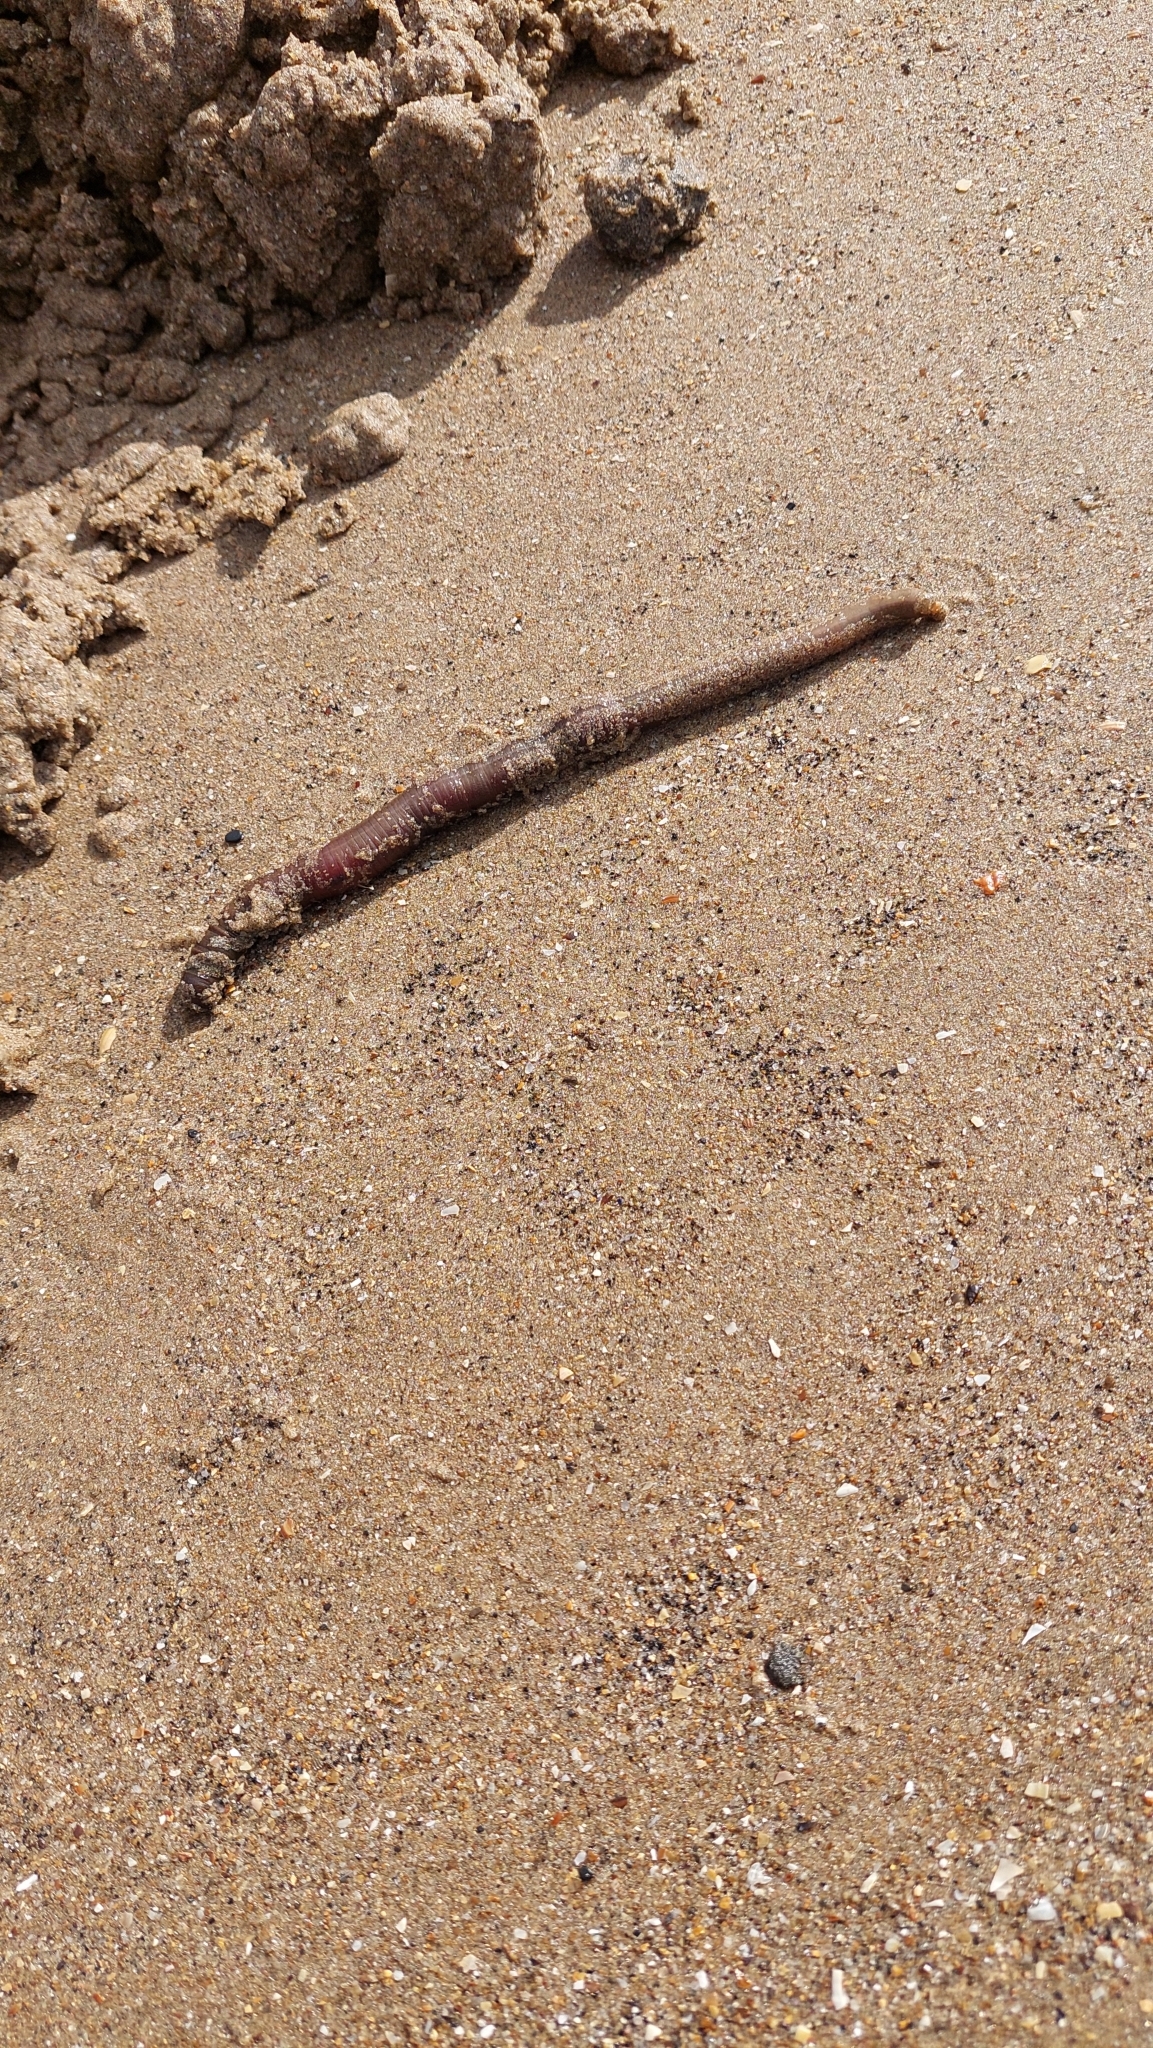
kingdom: Animalia
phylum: Annelida
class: Polychaeta
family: Arenicolidae
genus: Arenicola
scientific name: Arenicola marina
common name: Blow lugworm
